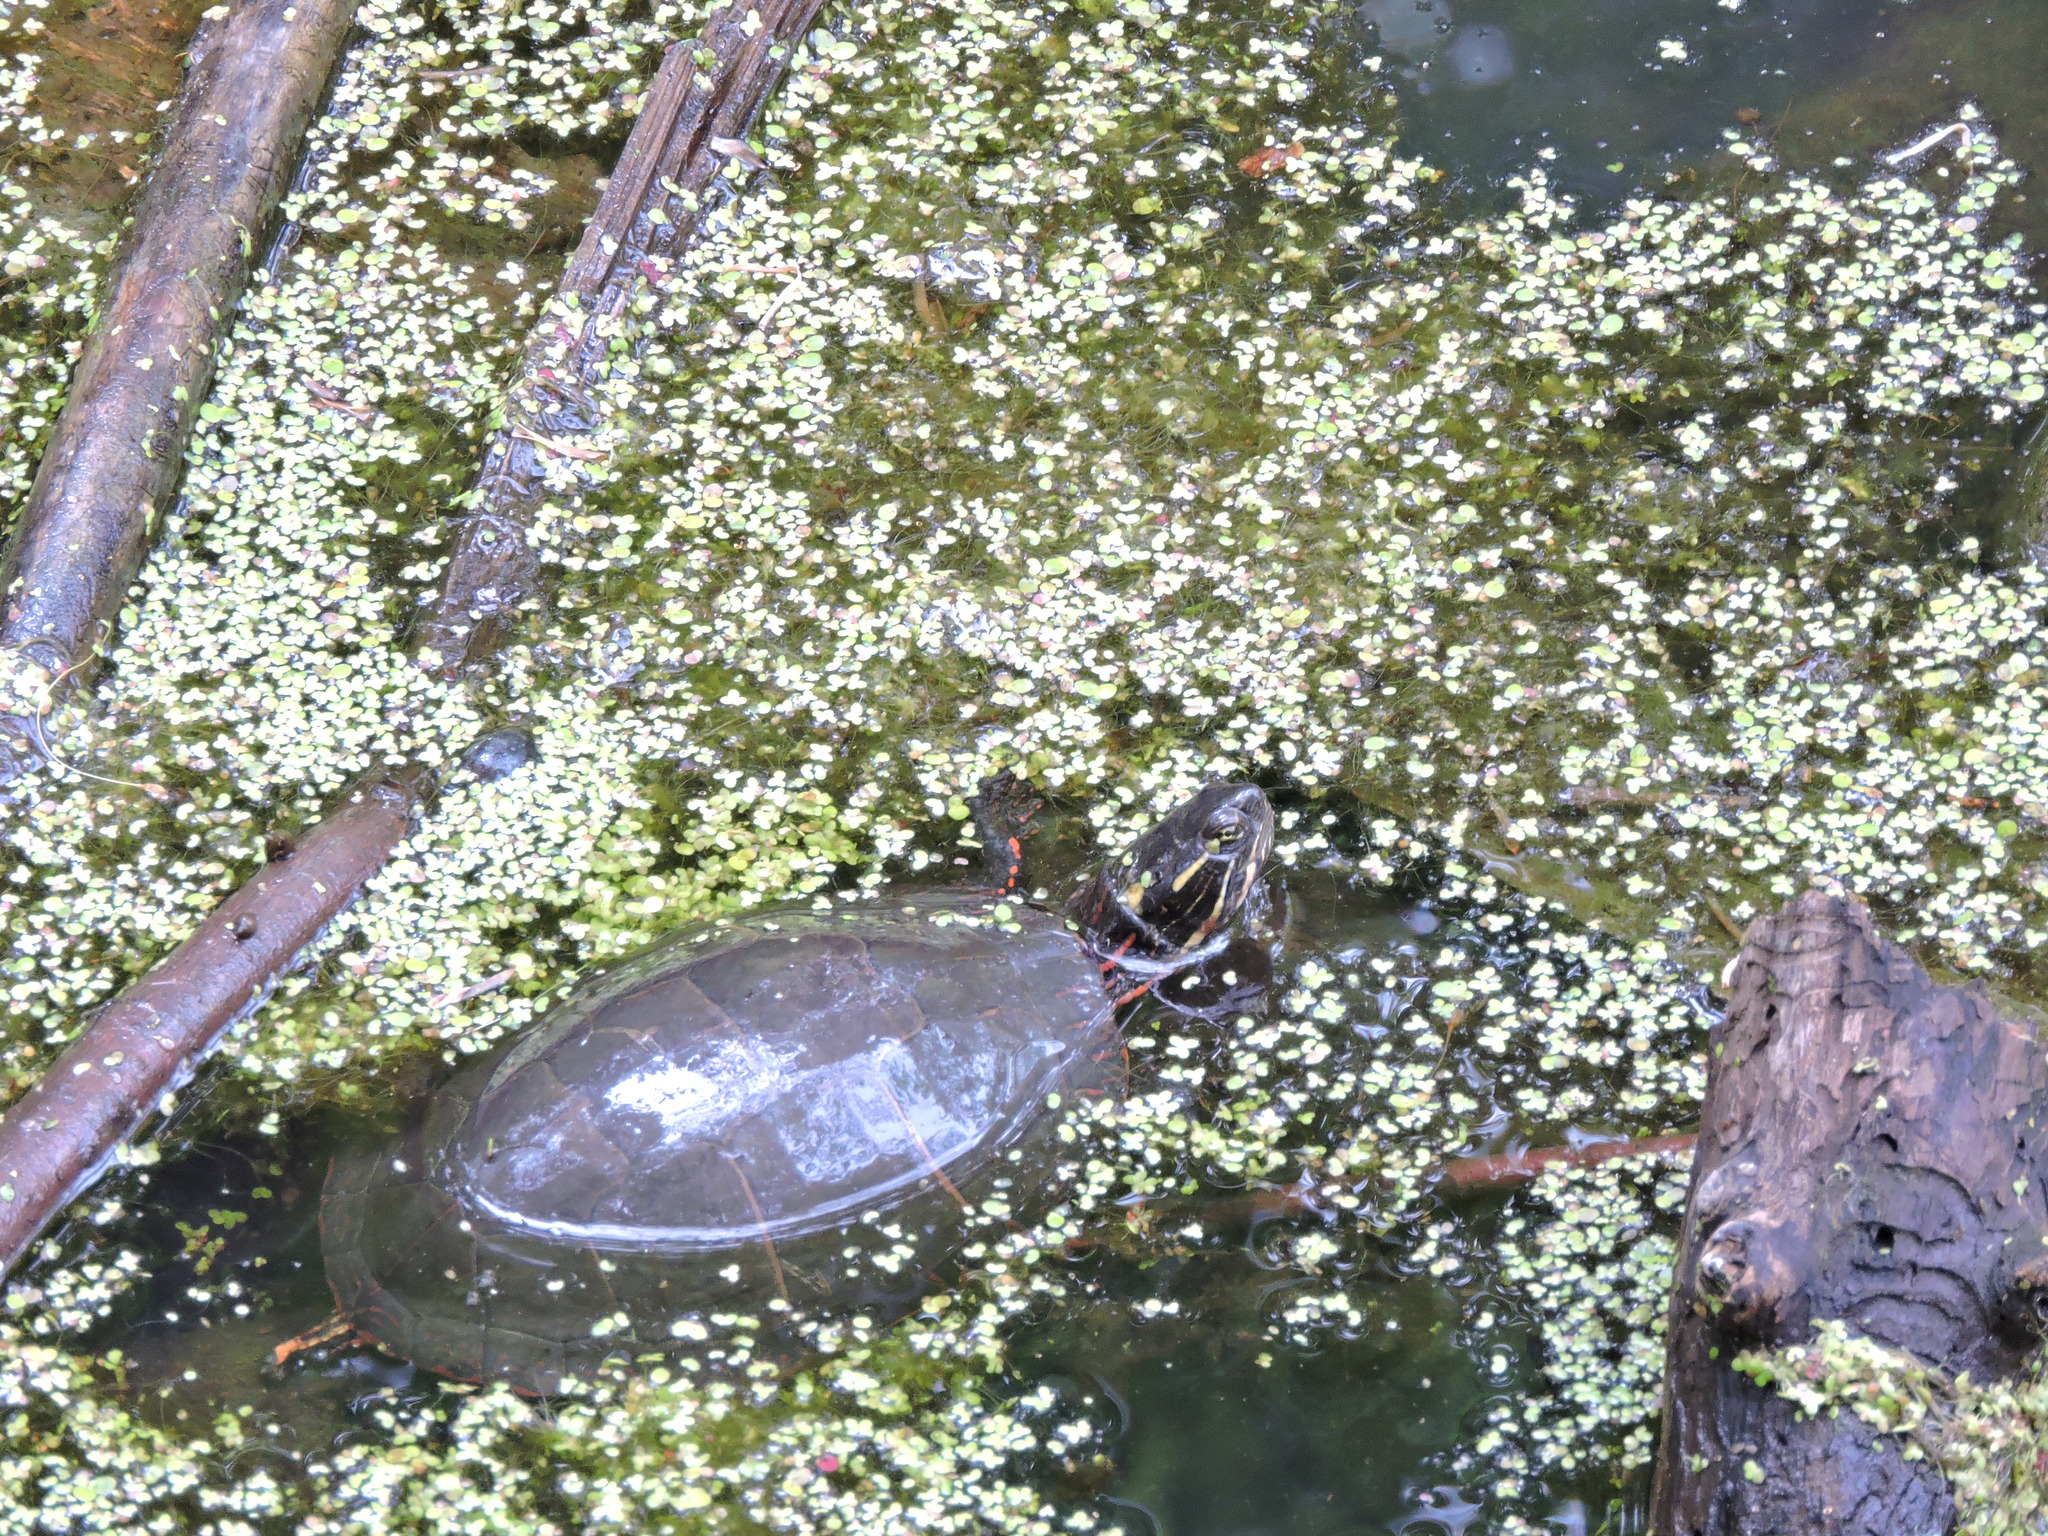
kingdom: Animalia
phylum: Chordata
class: Testudines
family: Emydidae
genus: Chrysemys
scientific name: Chrysemys picta
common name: Painted turtle
